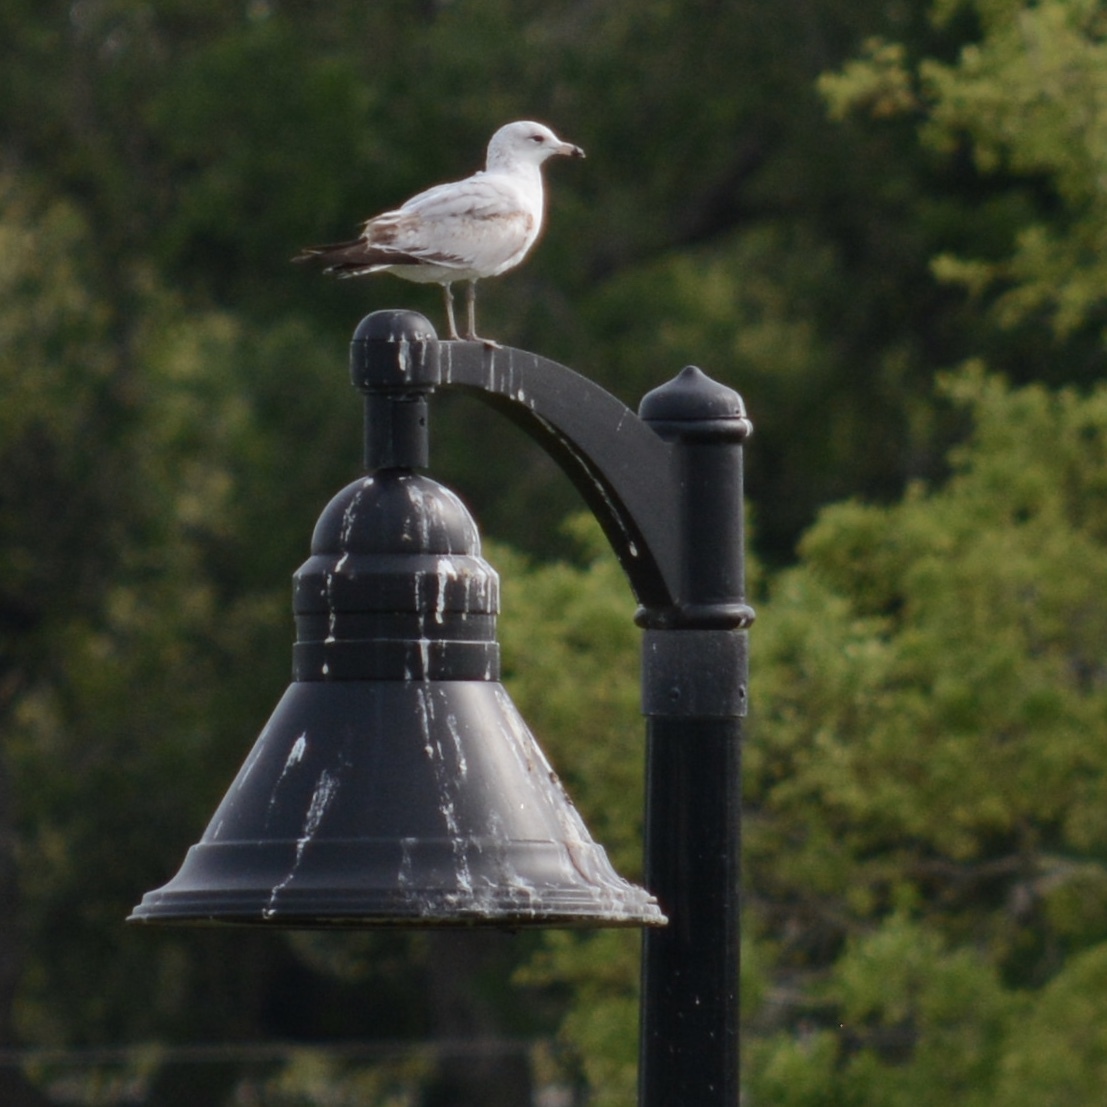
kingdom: Animalia
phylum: Chordata
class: Aves
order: Charadriiformes
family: Laridae
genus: Larus
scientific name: Larus delawarensis
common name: Ring-billed gull
